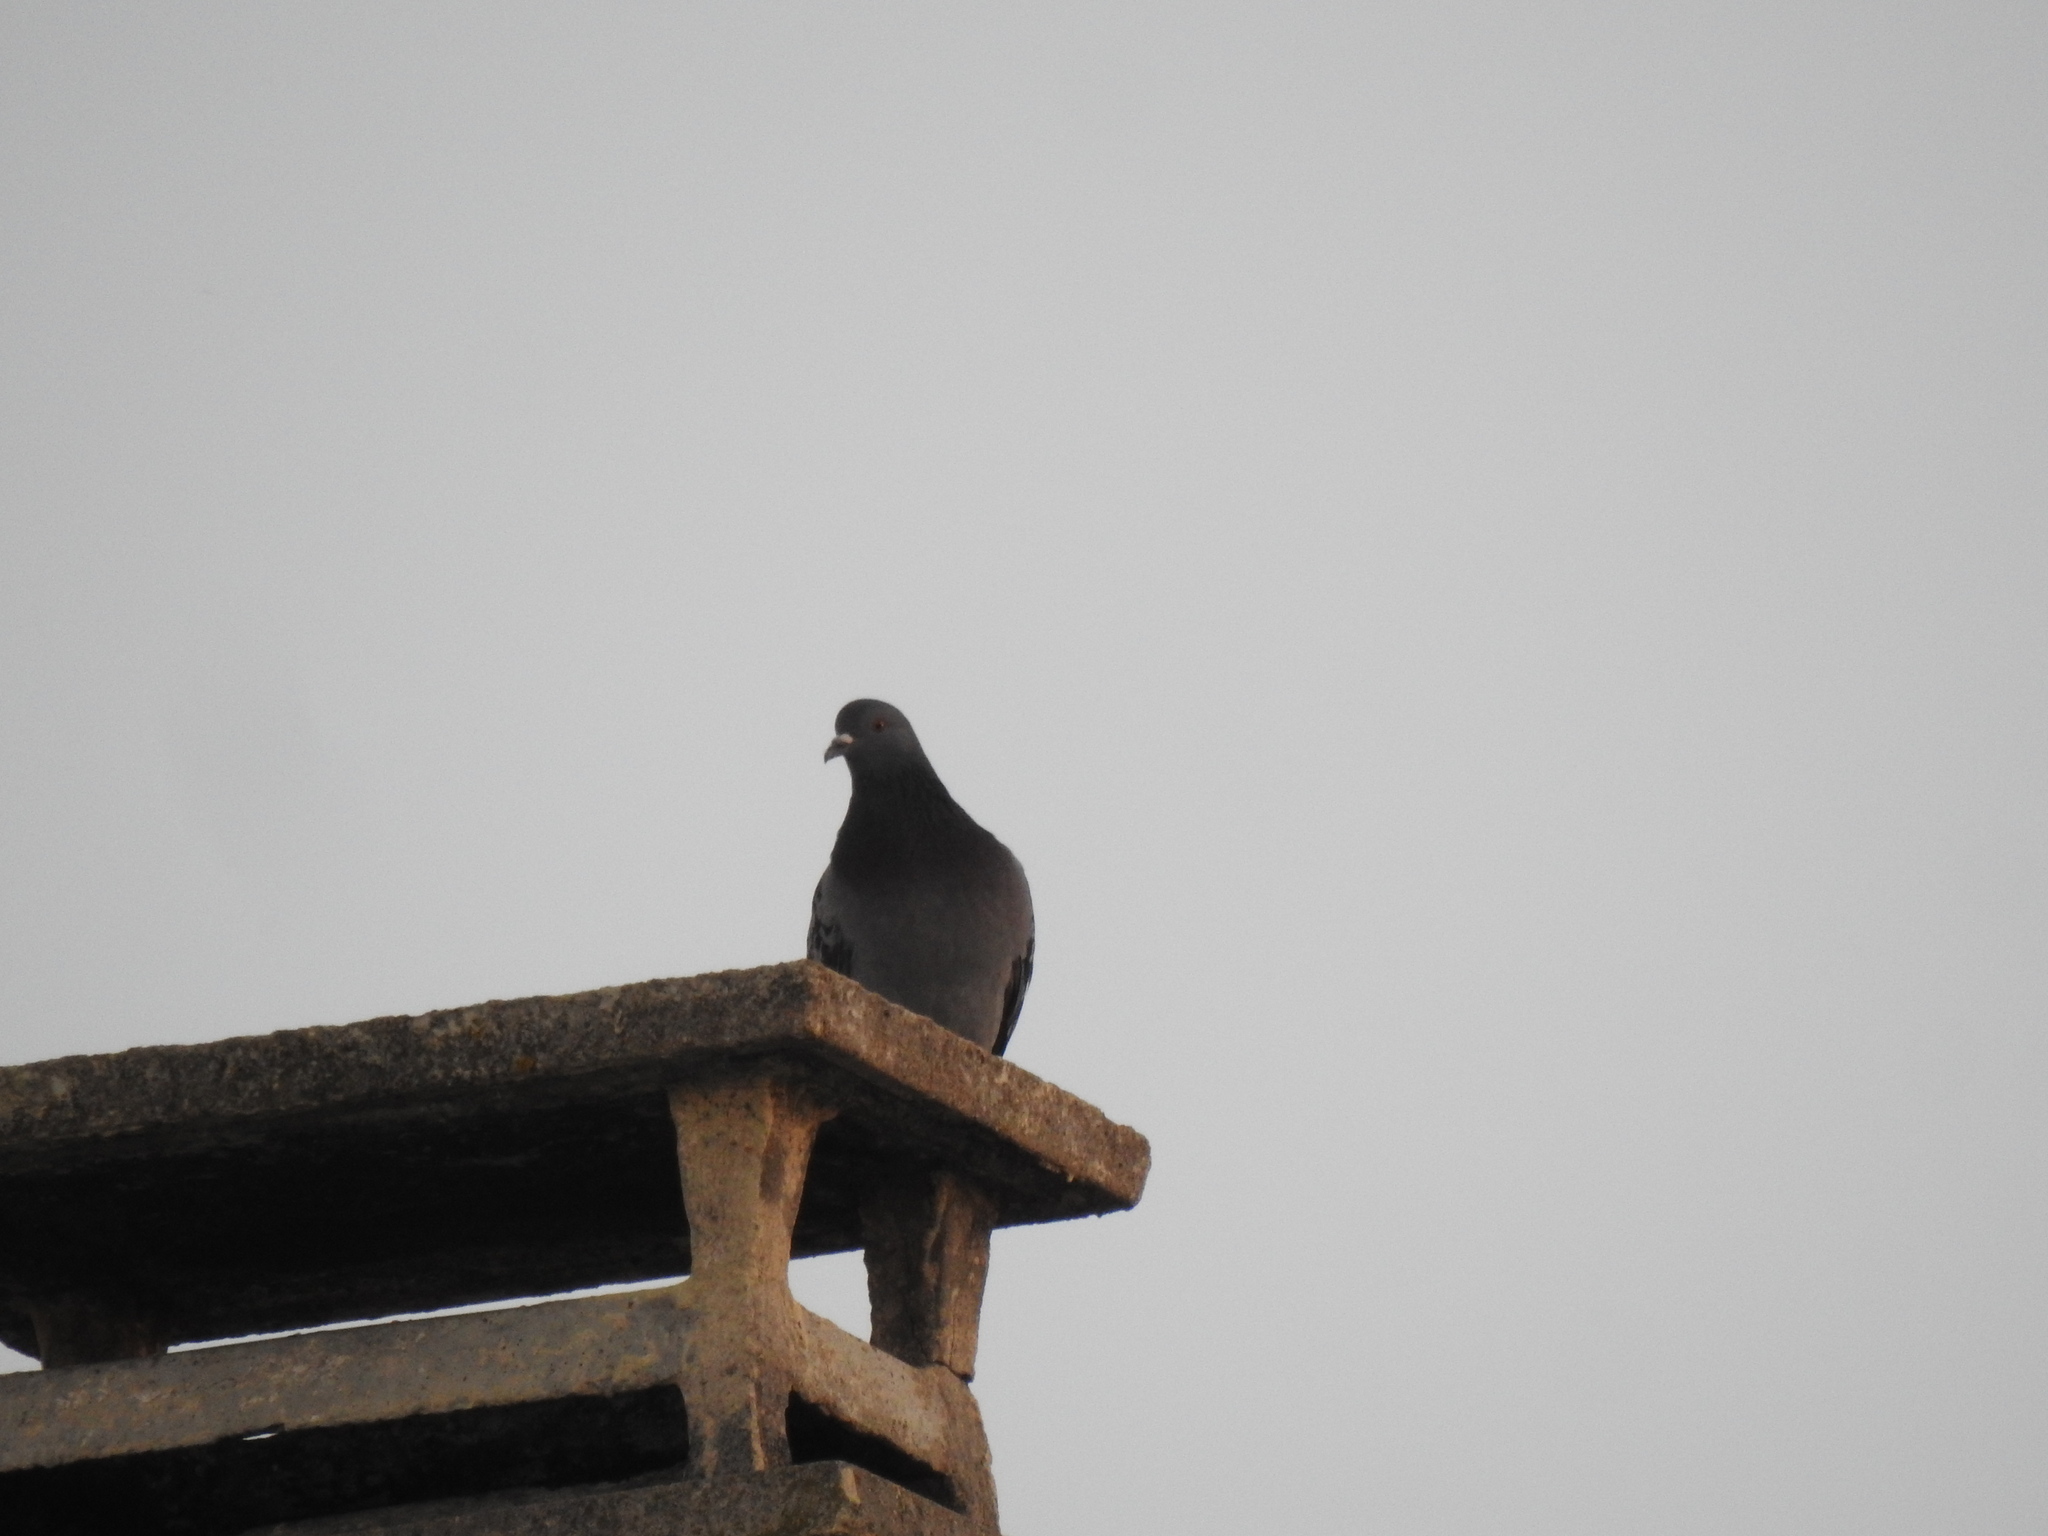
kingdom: Animalia
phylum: Chordata
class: Aves
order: Columbiformes
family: Columbidae
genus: Columba
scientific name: Columba livia
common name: Rock pigeon
